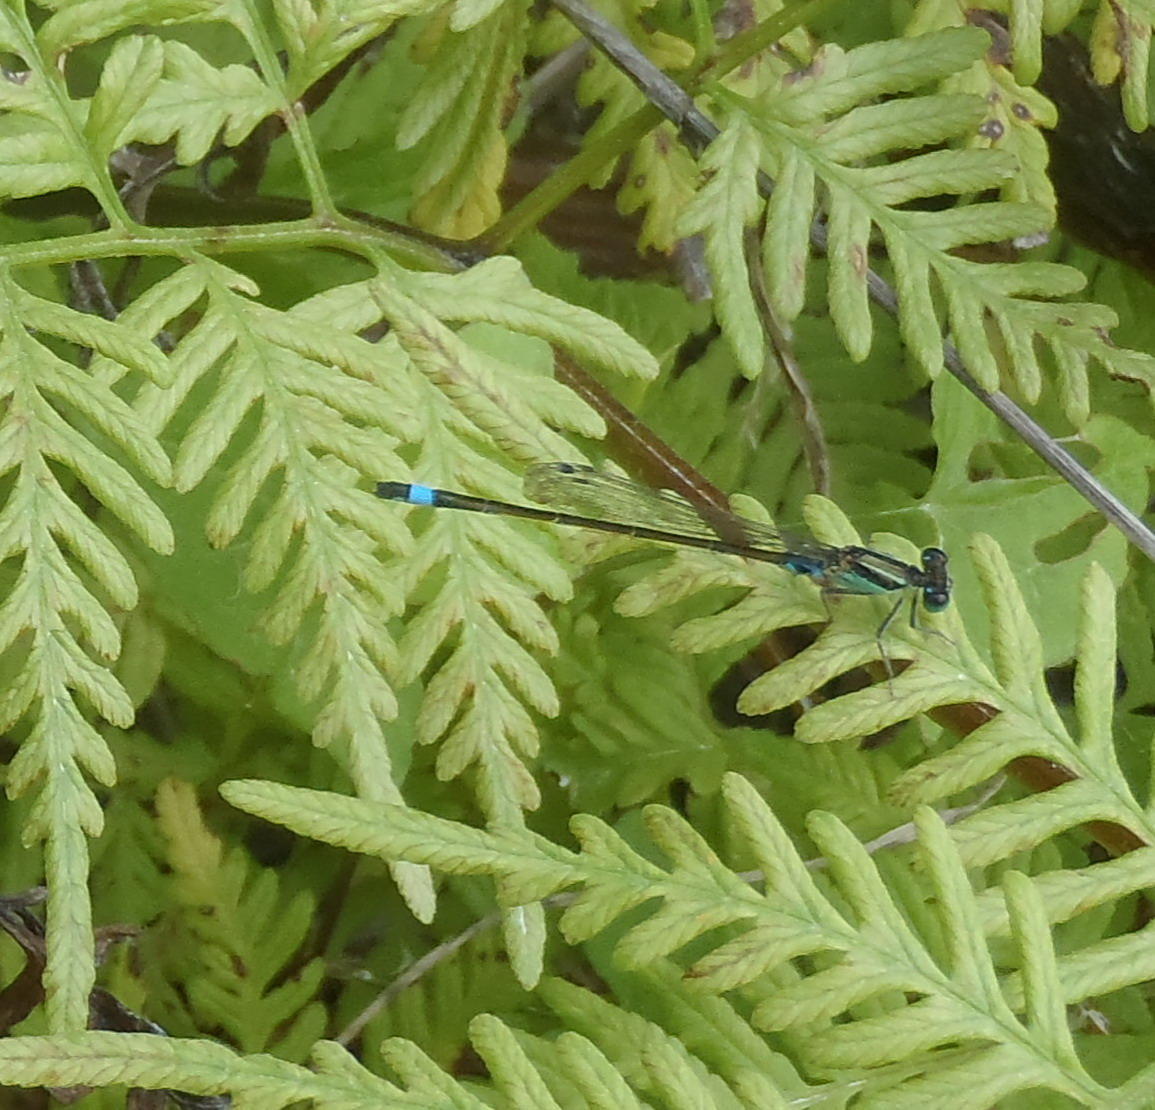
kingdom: Animalia
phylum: Arthropoda
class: Insecta
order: Odonata
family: Coenagrionidae
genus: Ischnura
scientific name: Ischnura senegalensis
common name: Tropical bluetail
